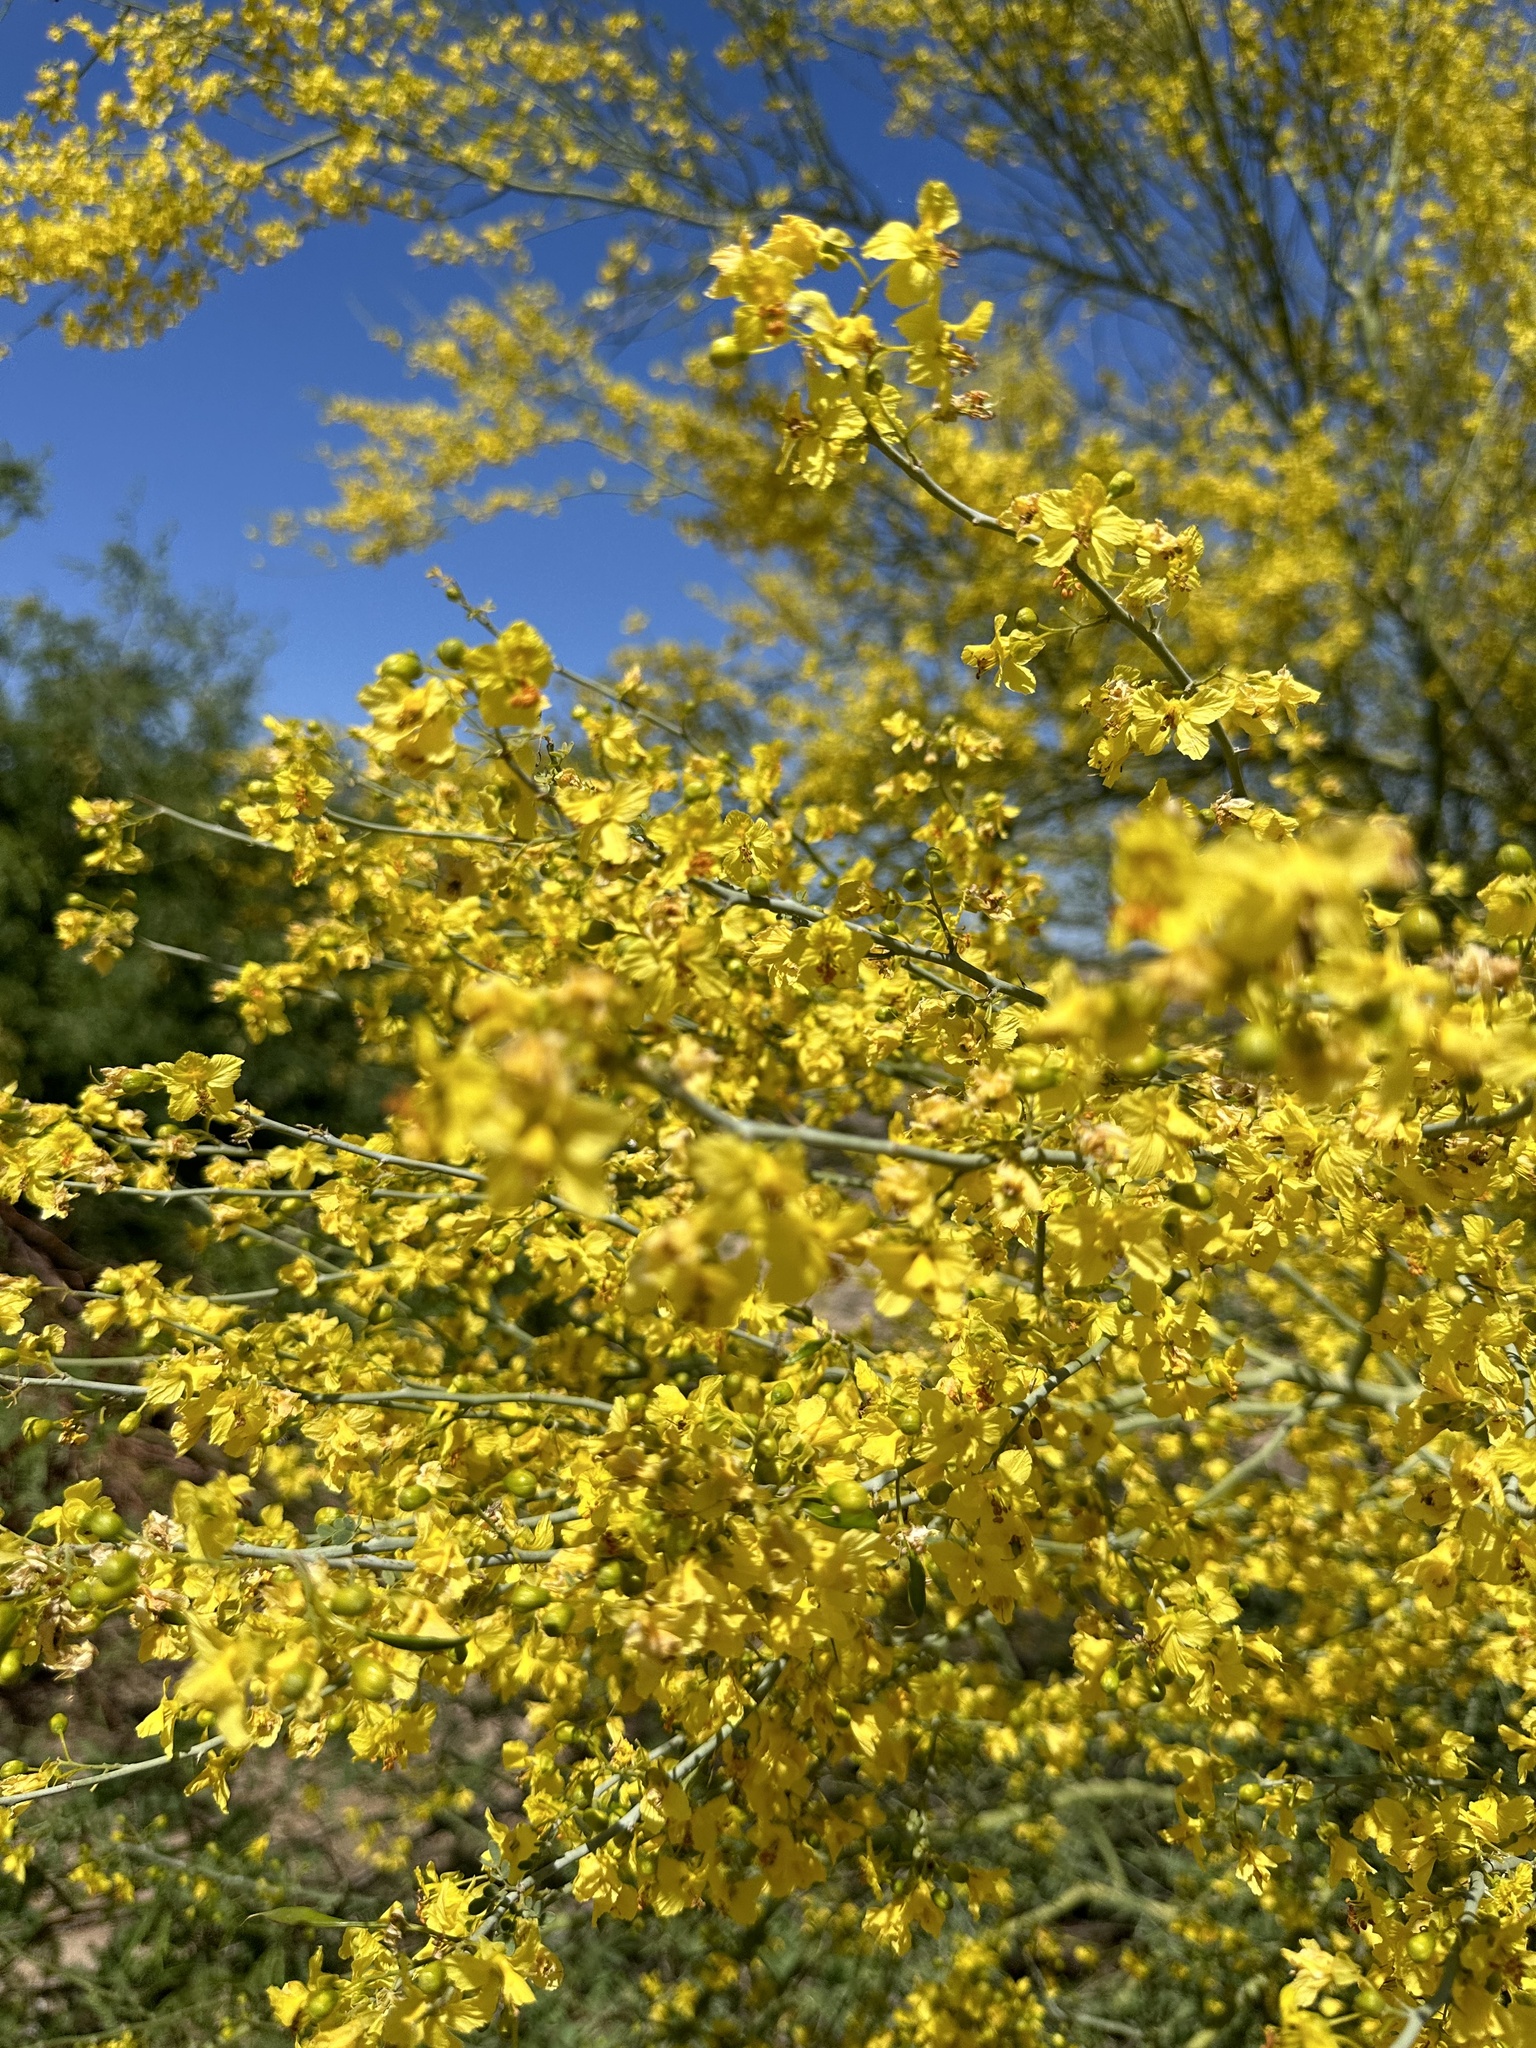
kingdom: Plantae
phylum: Tracheophyta
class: Magnoliopsida
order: Fabales
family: Fabaceae
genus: Parkinsonia
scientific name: Parkinsonia florida
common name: Blue paloverde
